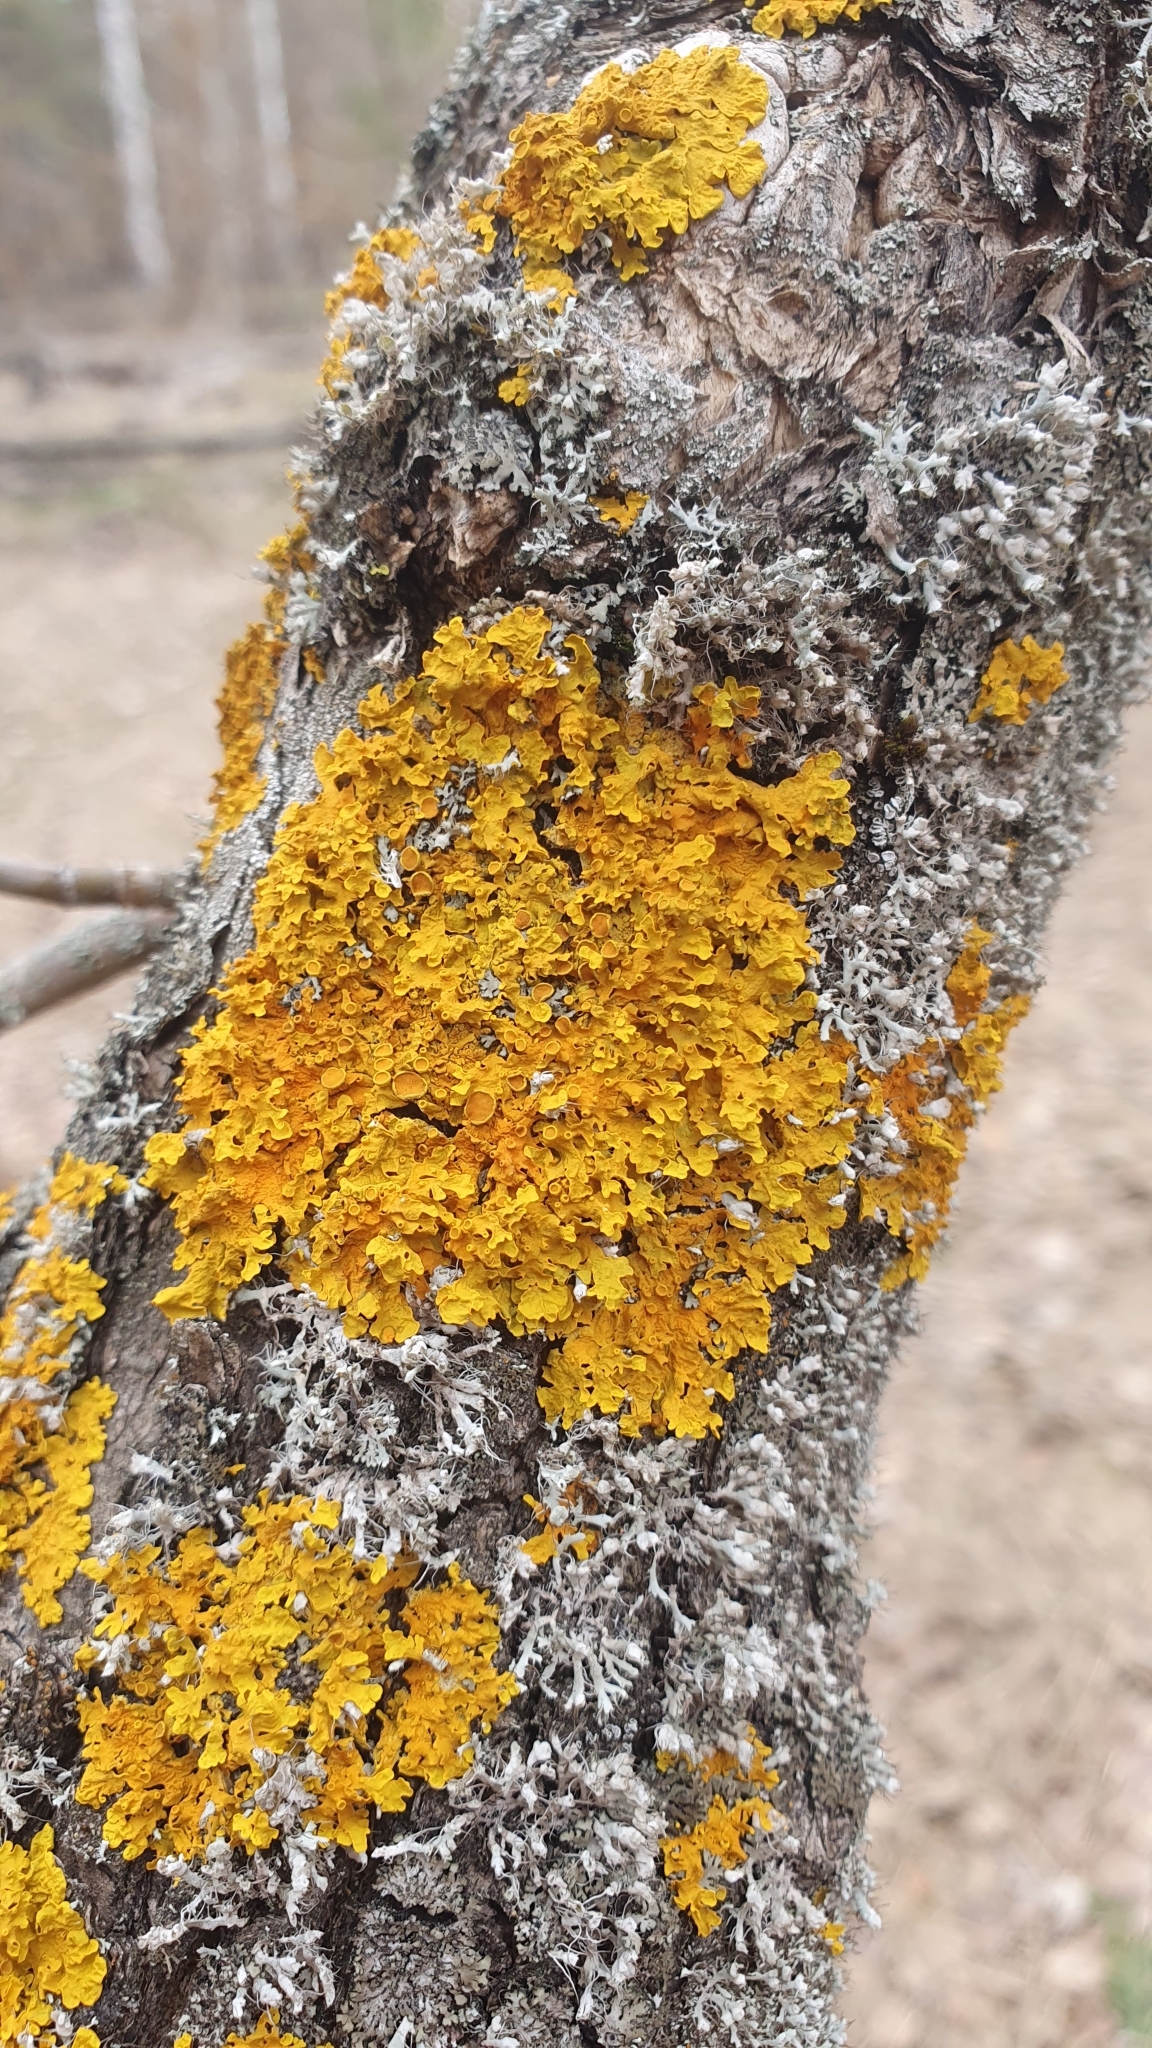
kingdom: Fungi
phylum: Ascomycota
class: Lecanoromycetes
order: Teloschistales
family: Teloschistaceae
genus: Xanthoria
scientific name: Xanthoria parietina
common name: Common orange lichen
